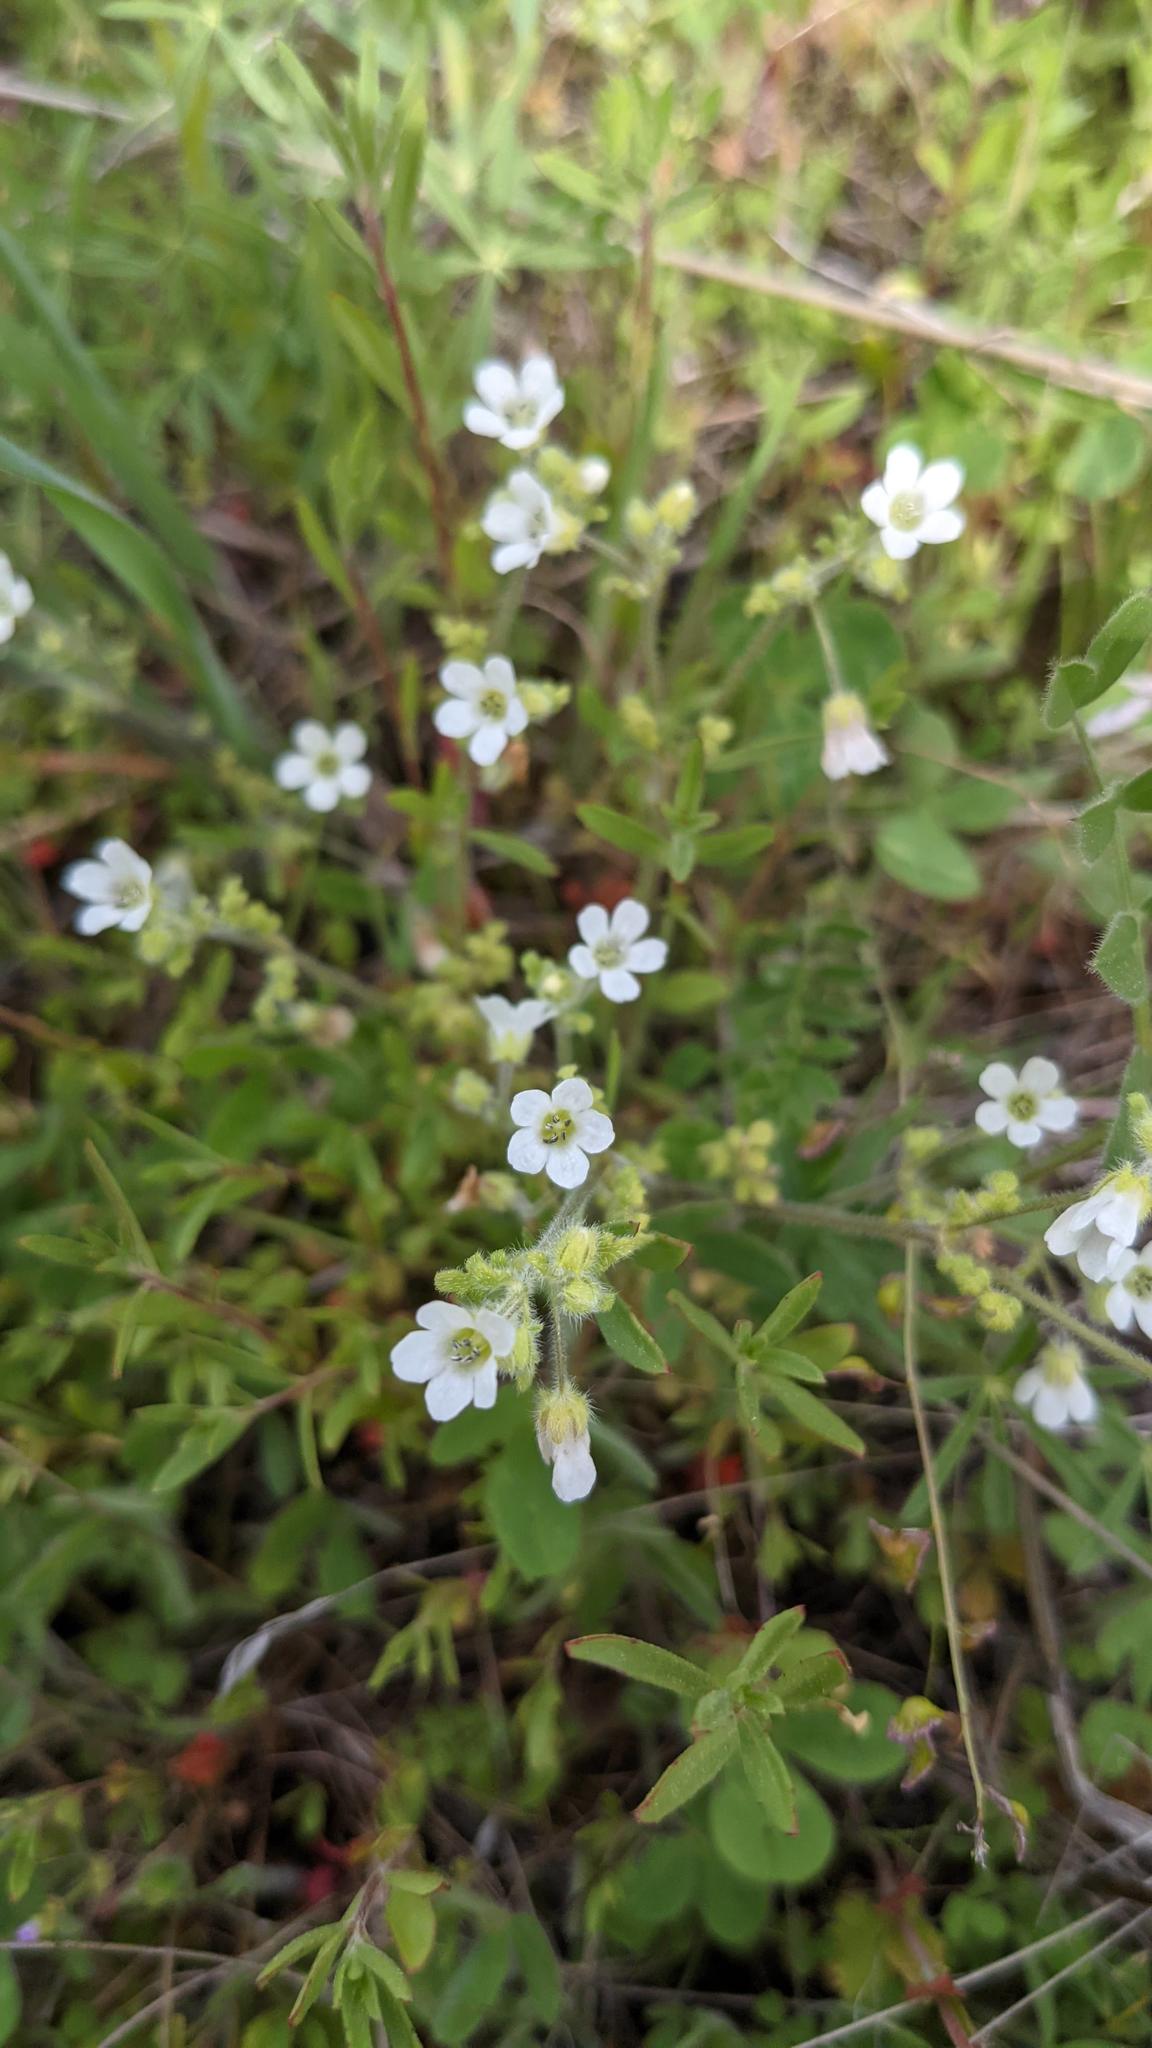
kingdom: Plantae
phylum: Tracheophyta
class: Magnoliopsida
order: Boraginales
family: Hydrophyllaceae
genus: Nemophila
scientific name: Nemophila heterophylla
